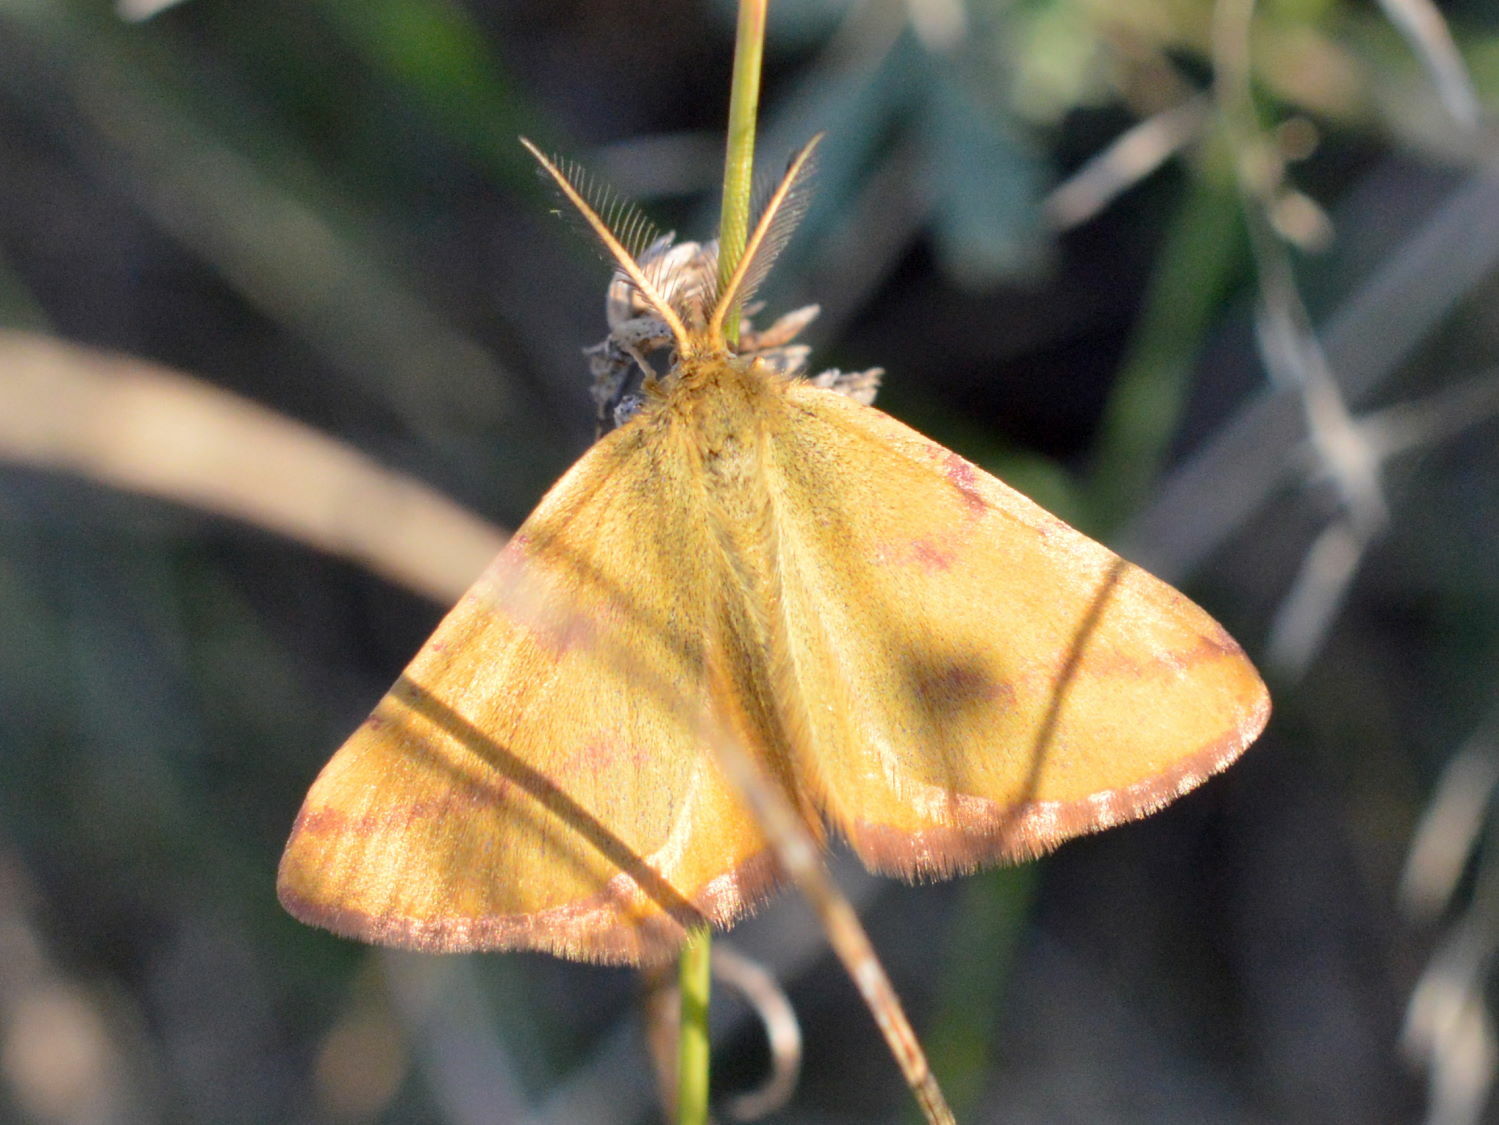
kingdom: Animalia
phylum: Arthropoda
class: Insecta
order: Lepidoptera
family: Geometridae
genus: Lythria
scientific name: Lythria purpuraria
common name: Purple-barred yellow
